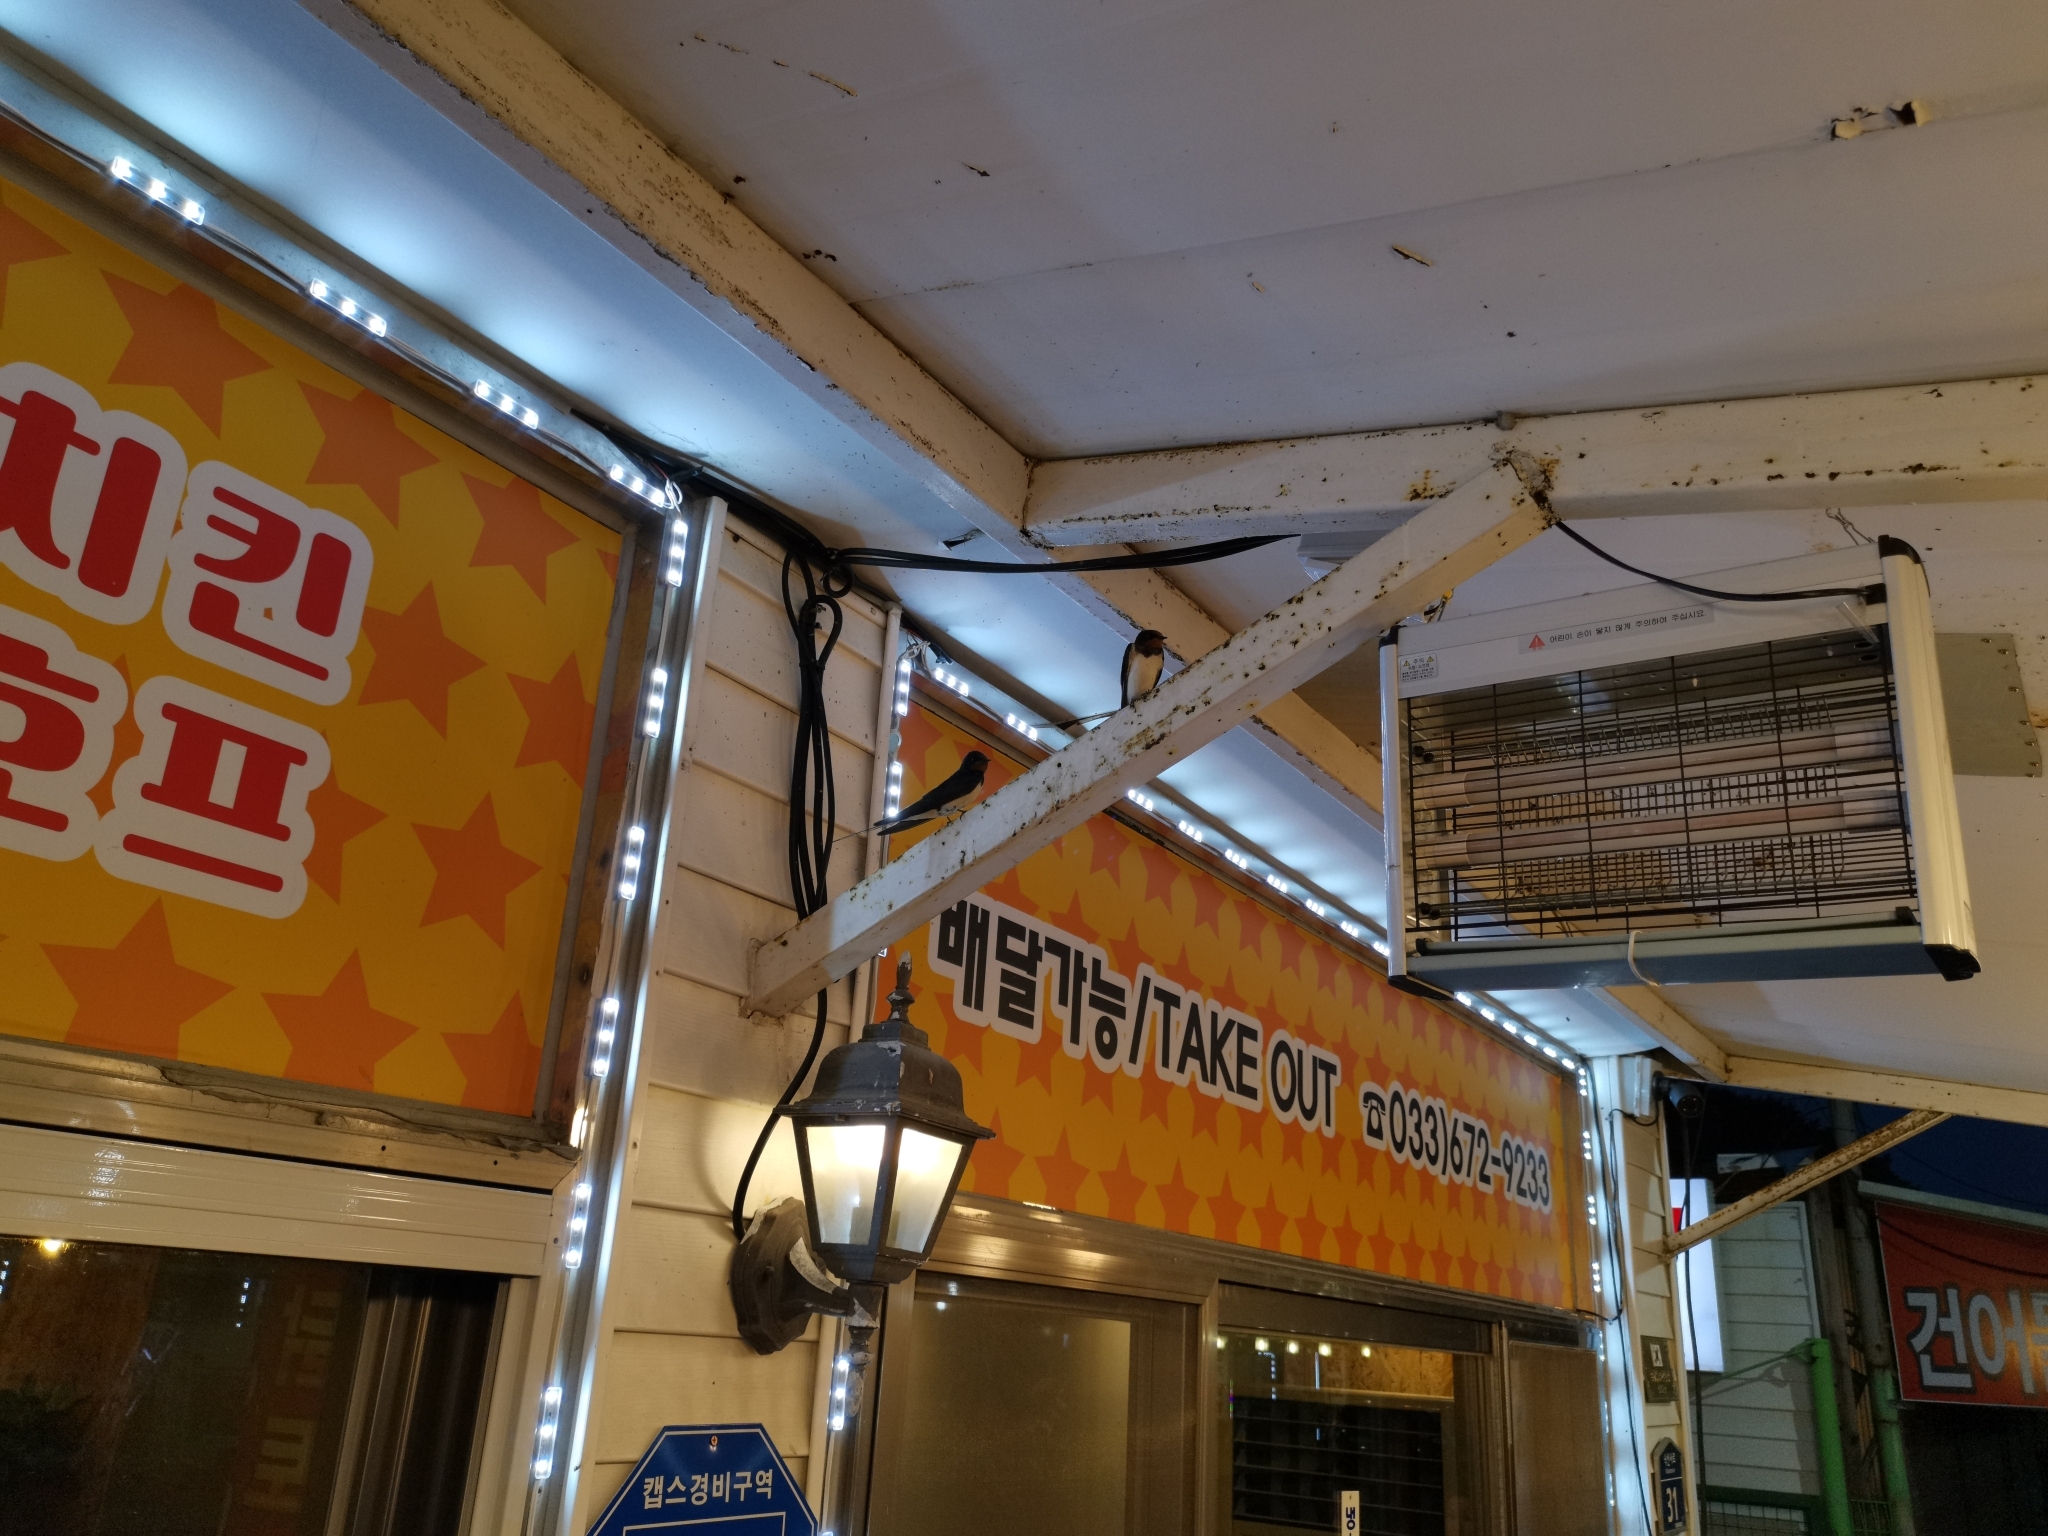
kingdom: Animalia
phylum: Chordata
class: Aves
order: Passeriformes
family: Hirundinidae
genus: Hirundo
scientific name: Hirundo rustica
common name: Barn swallow
